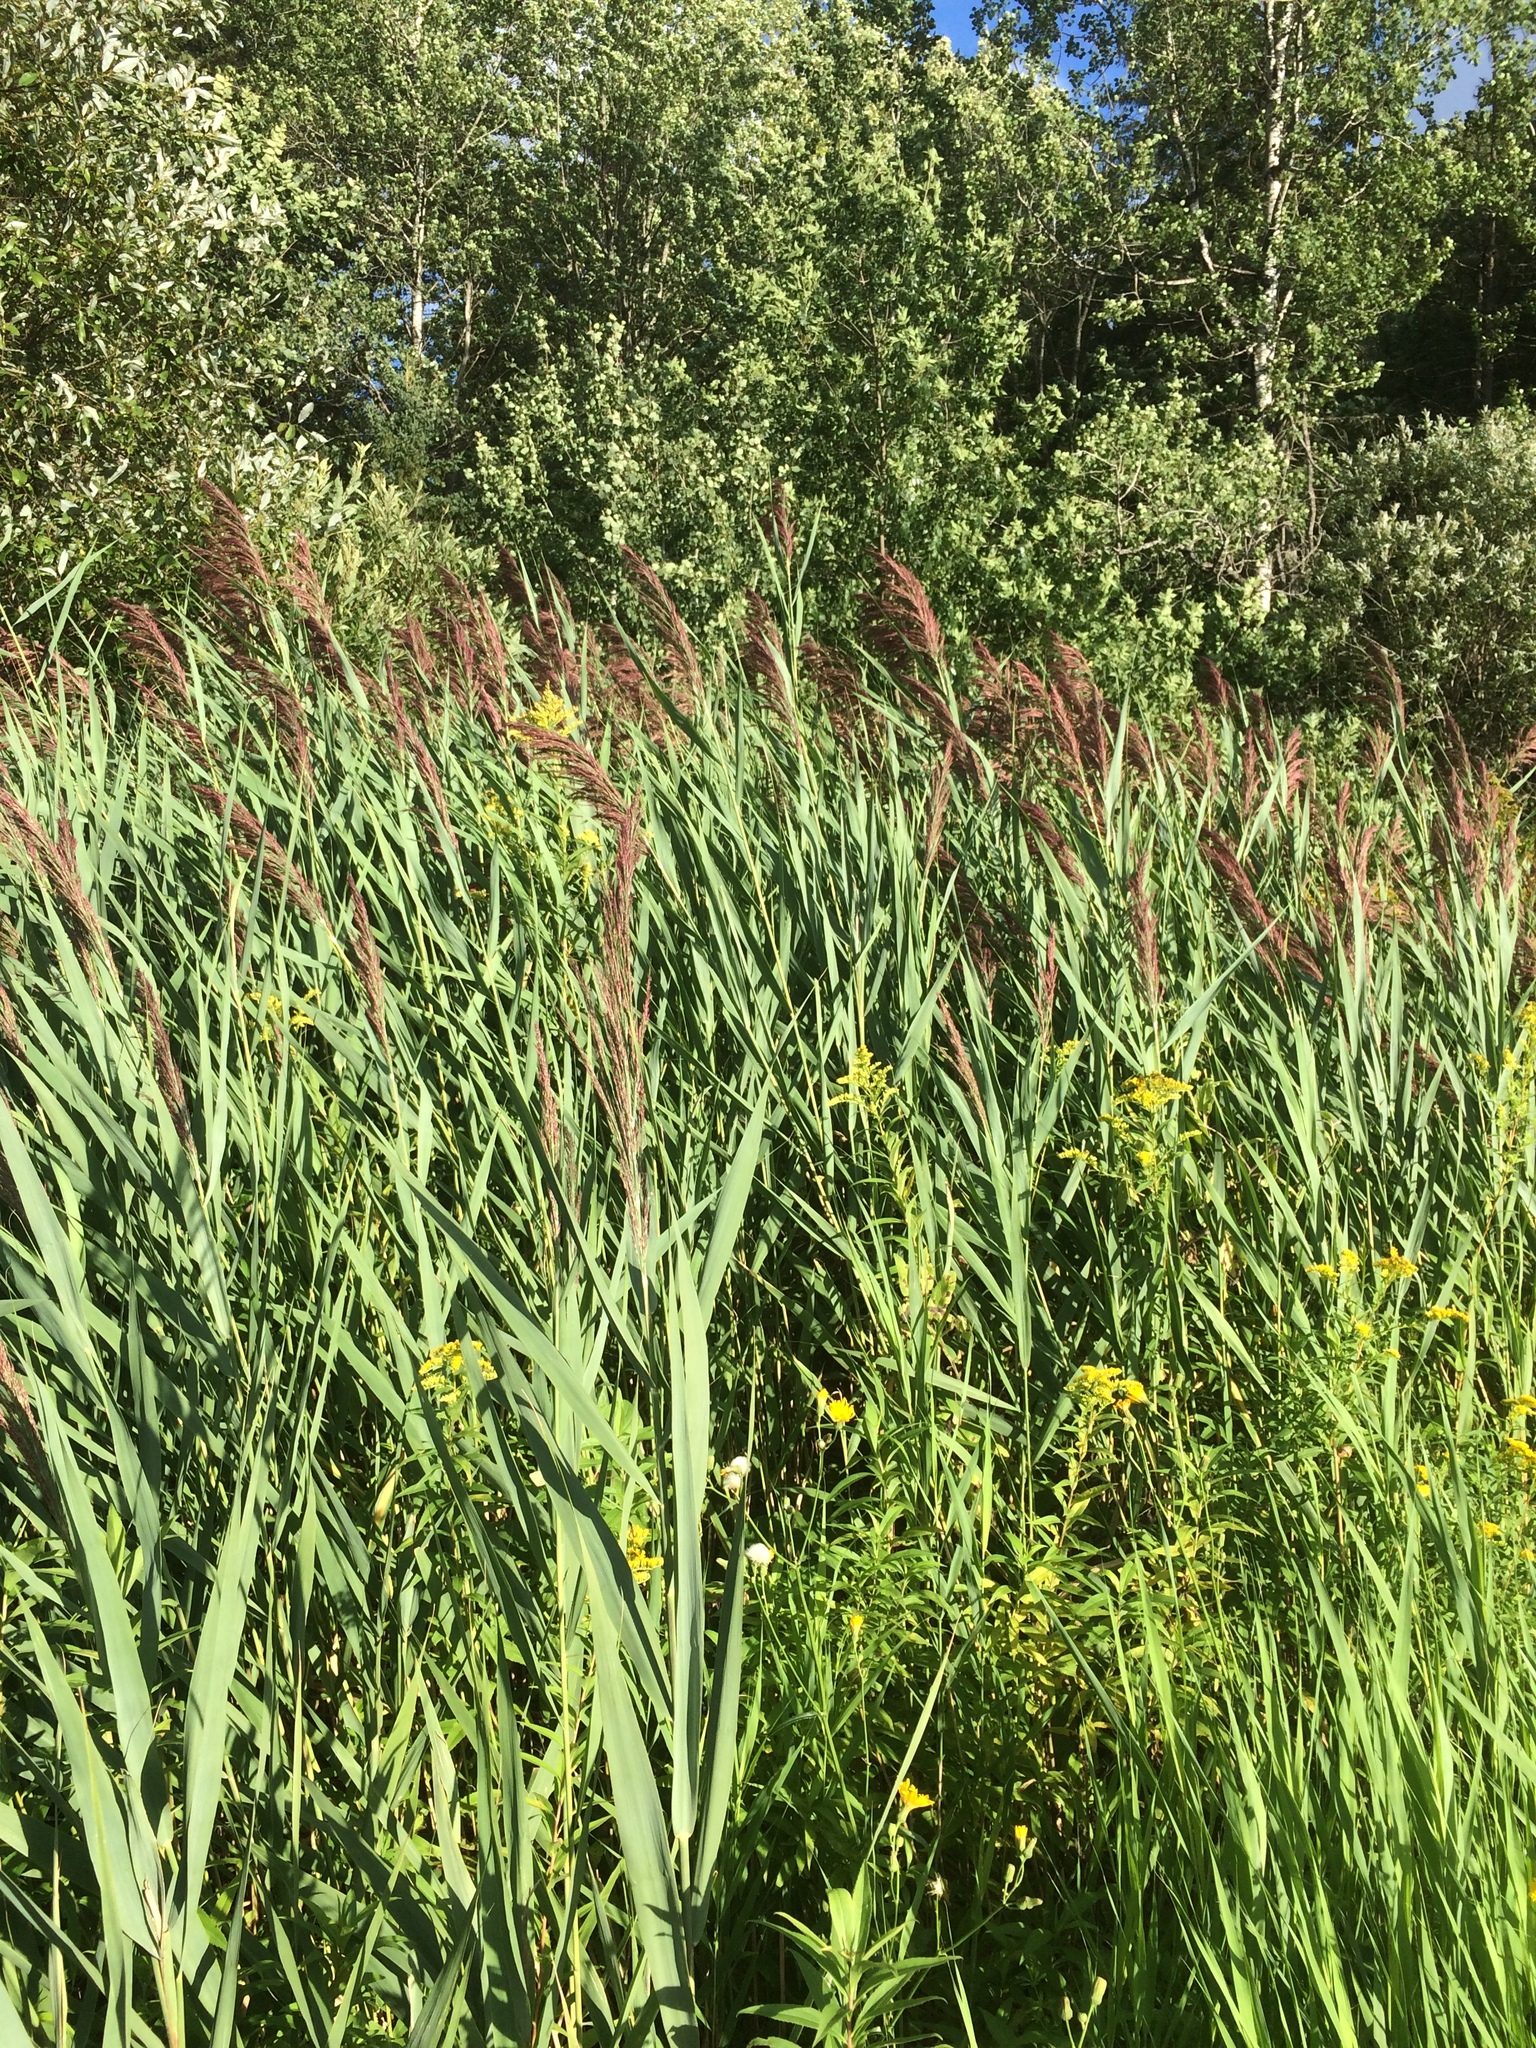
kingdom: Plantae
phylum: Tracheophyta
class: Liliopsida
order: Poales
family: Poaceae
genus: Phragmites
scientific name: Phragmites australis
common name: Common reed
